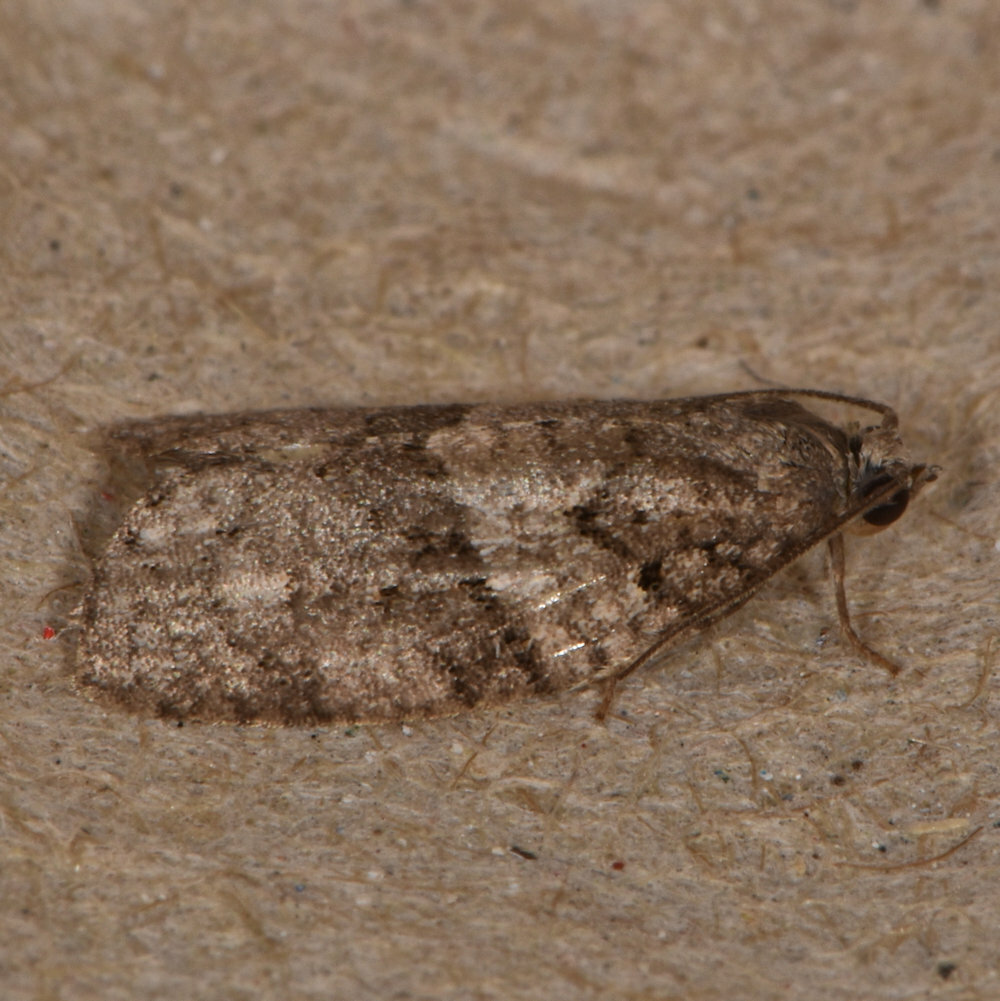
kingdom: Animalia
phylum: Arthropoda
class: Insecta
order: Lepidoptera
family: Tortricidae
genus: Syndemis
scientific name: Syndemis afflictana
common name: Gray leafroller moth
